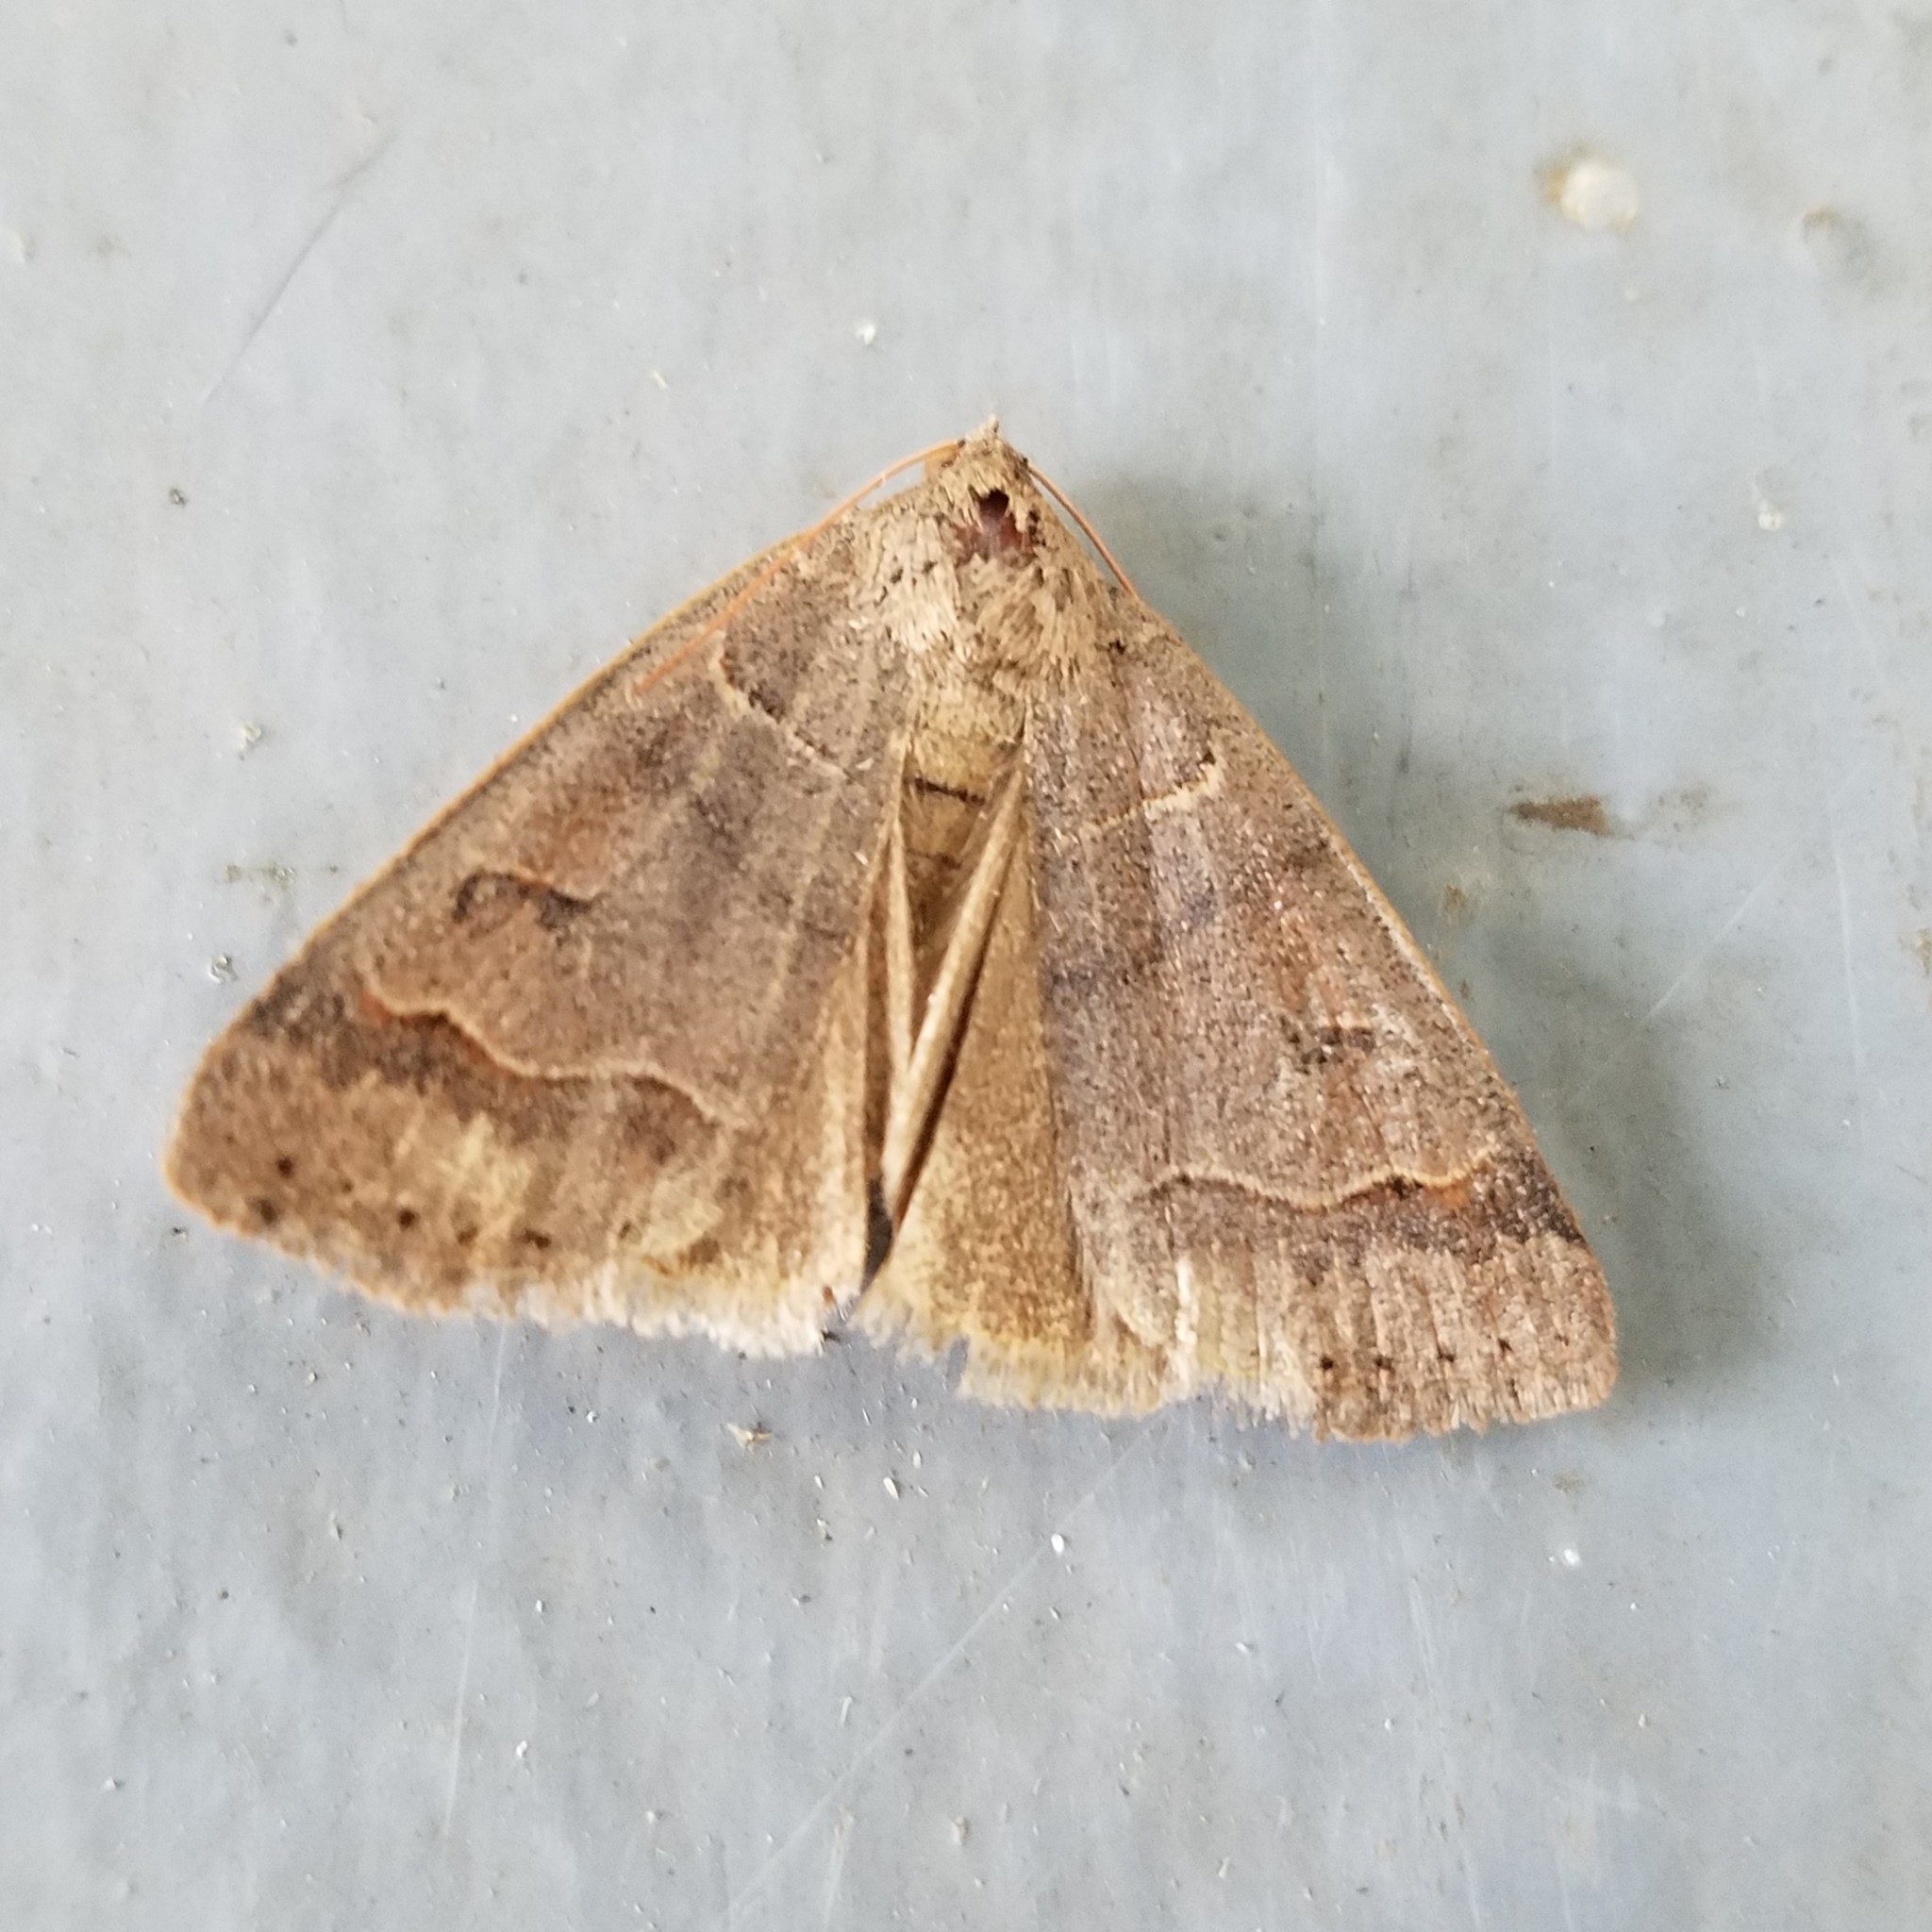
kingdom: Animalia
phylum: Arthropoda
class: Insecta
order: Lepidoptera
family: Erebidae
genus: Phoberia
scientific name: Phoberia atomaris
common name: Common oak moth
